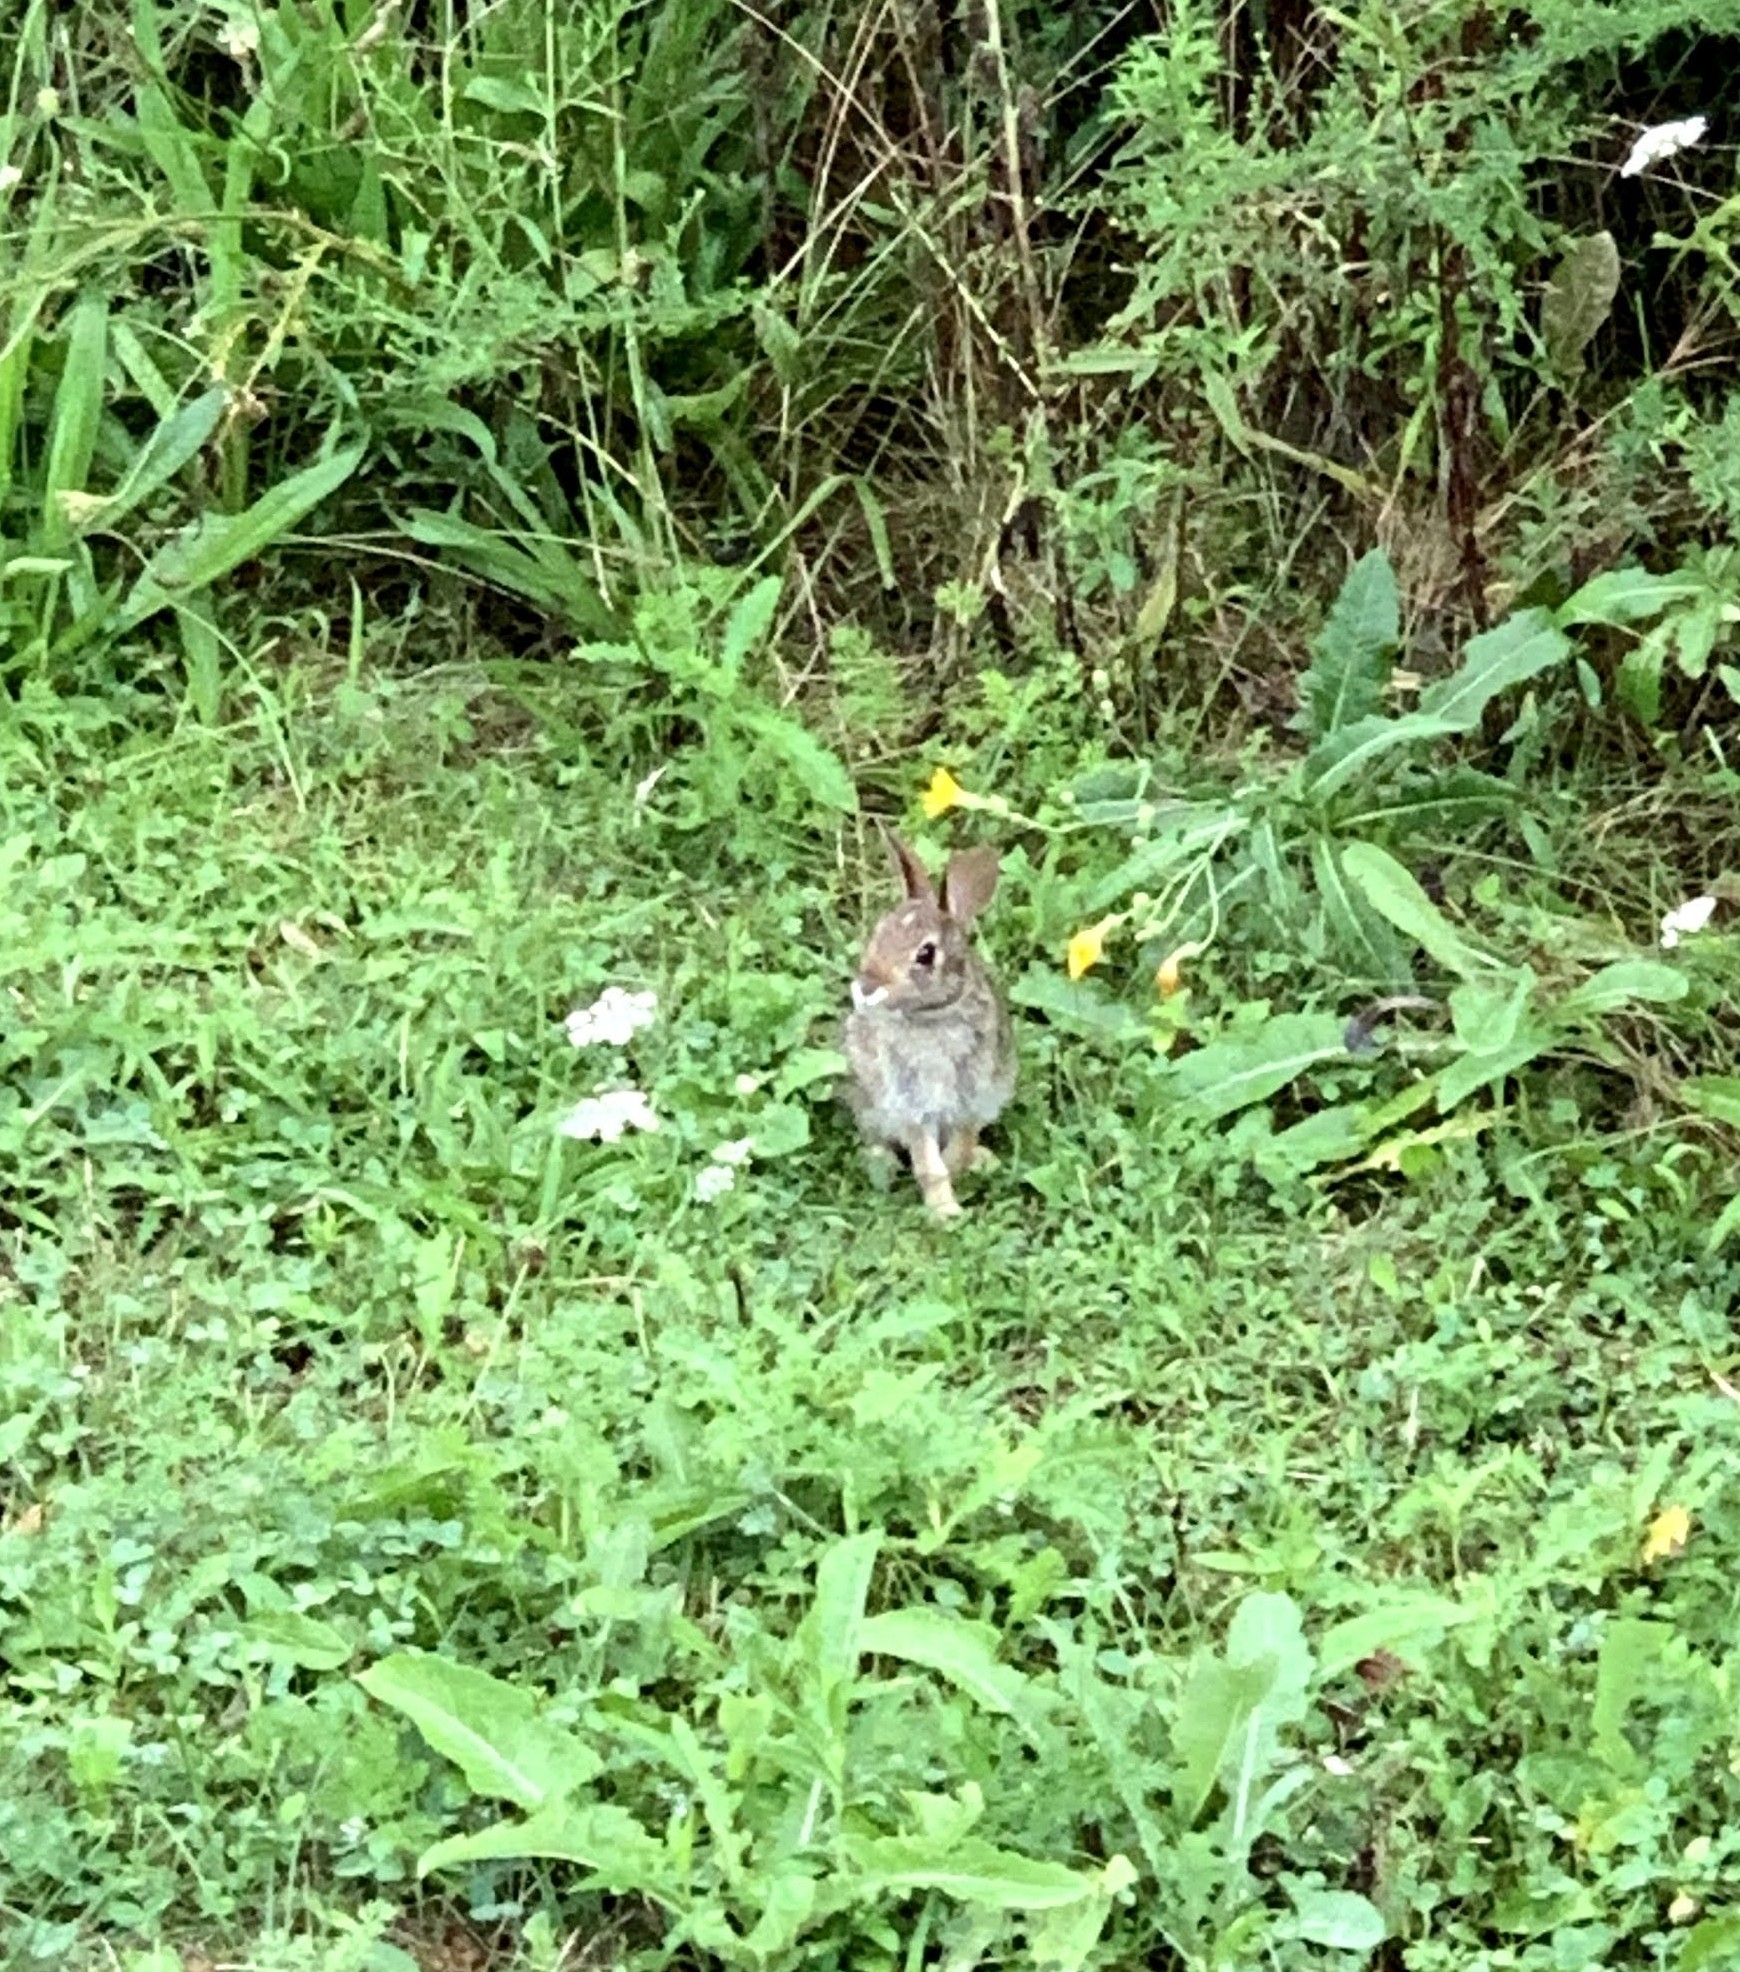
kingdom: Animalia
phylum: Chordata
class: Mammalia
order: Lagomorpha
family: Leporidae
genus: Sylvilagus
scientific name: Sylvilagus floridanus
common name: Eastern cottontail
